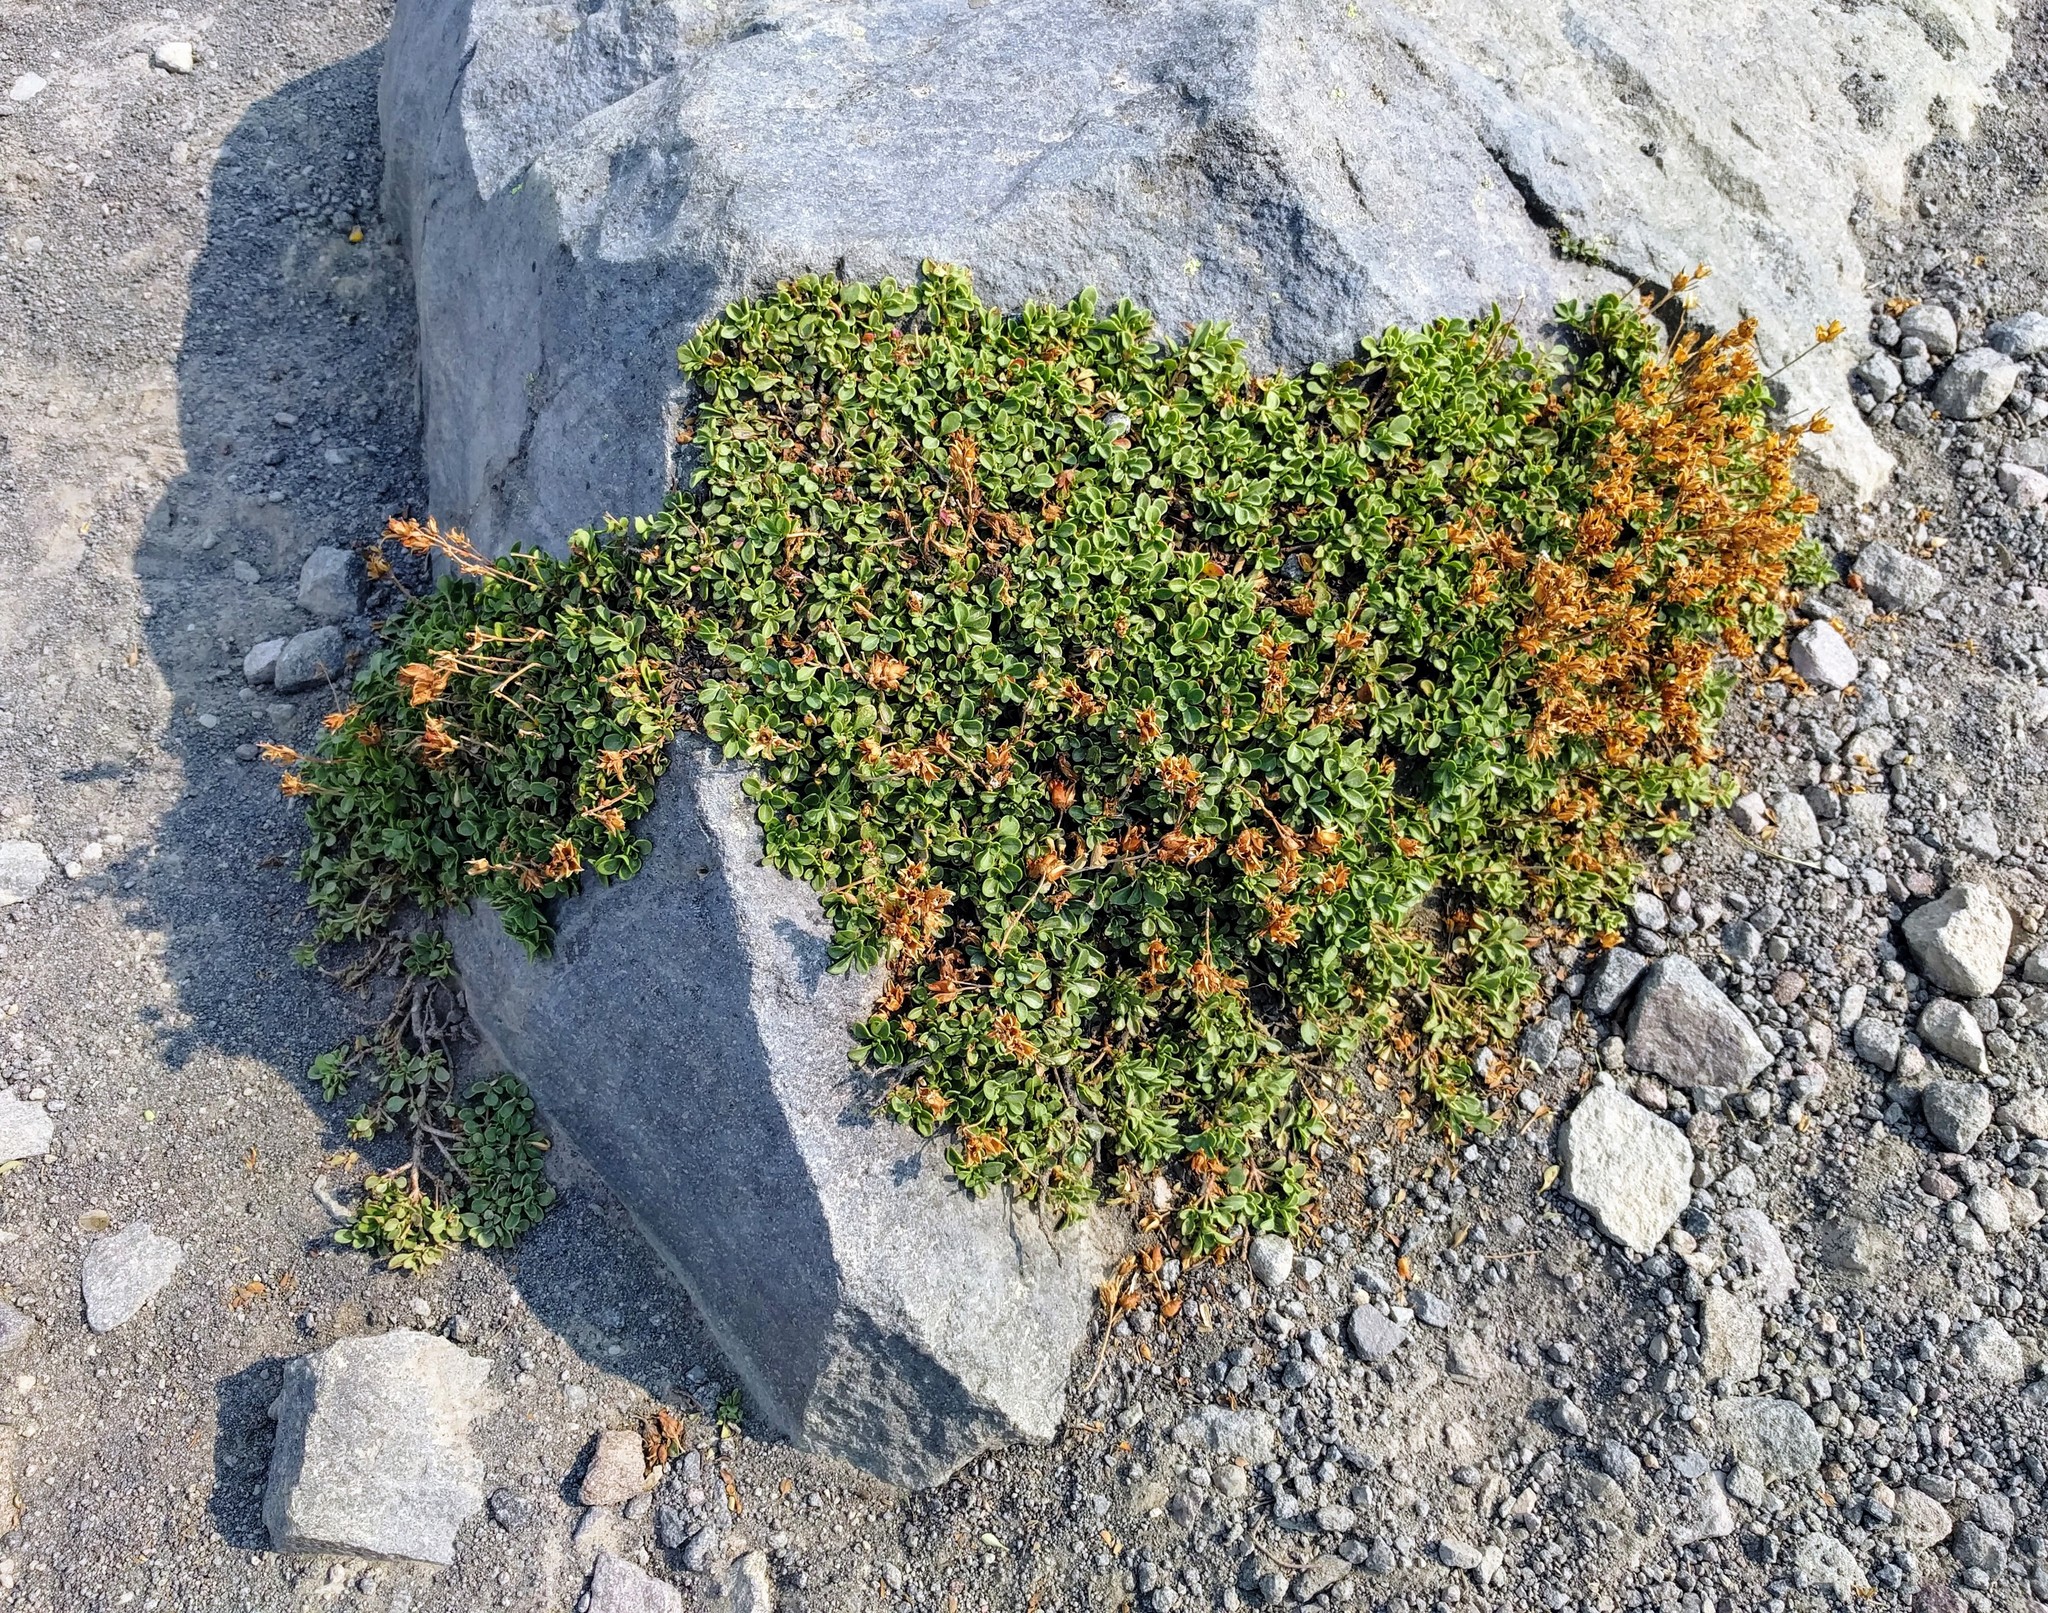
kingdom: Plantae
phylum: Tracheophyta
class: Magnoliopsida
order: Lamiales
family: Plantaginaceae
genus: Penstemon
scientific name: Penstemon davidsonii
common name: Davidson's penstemon
